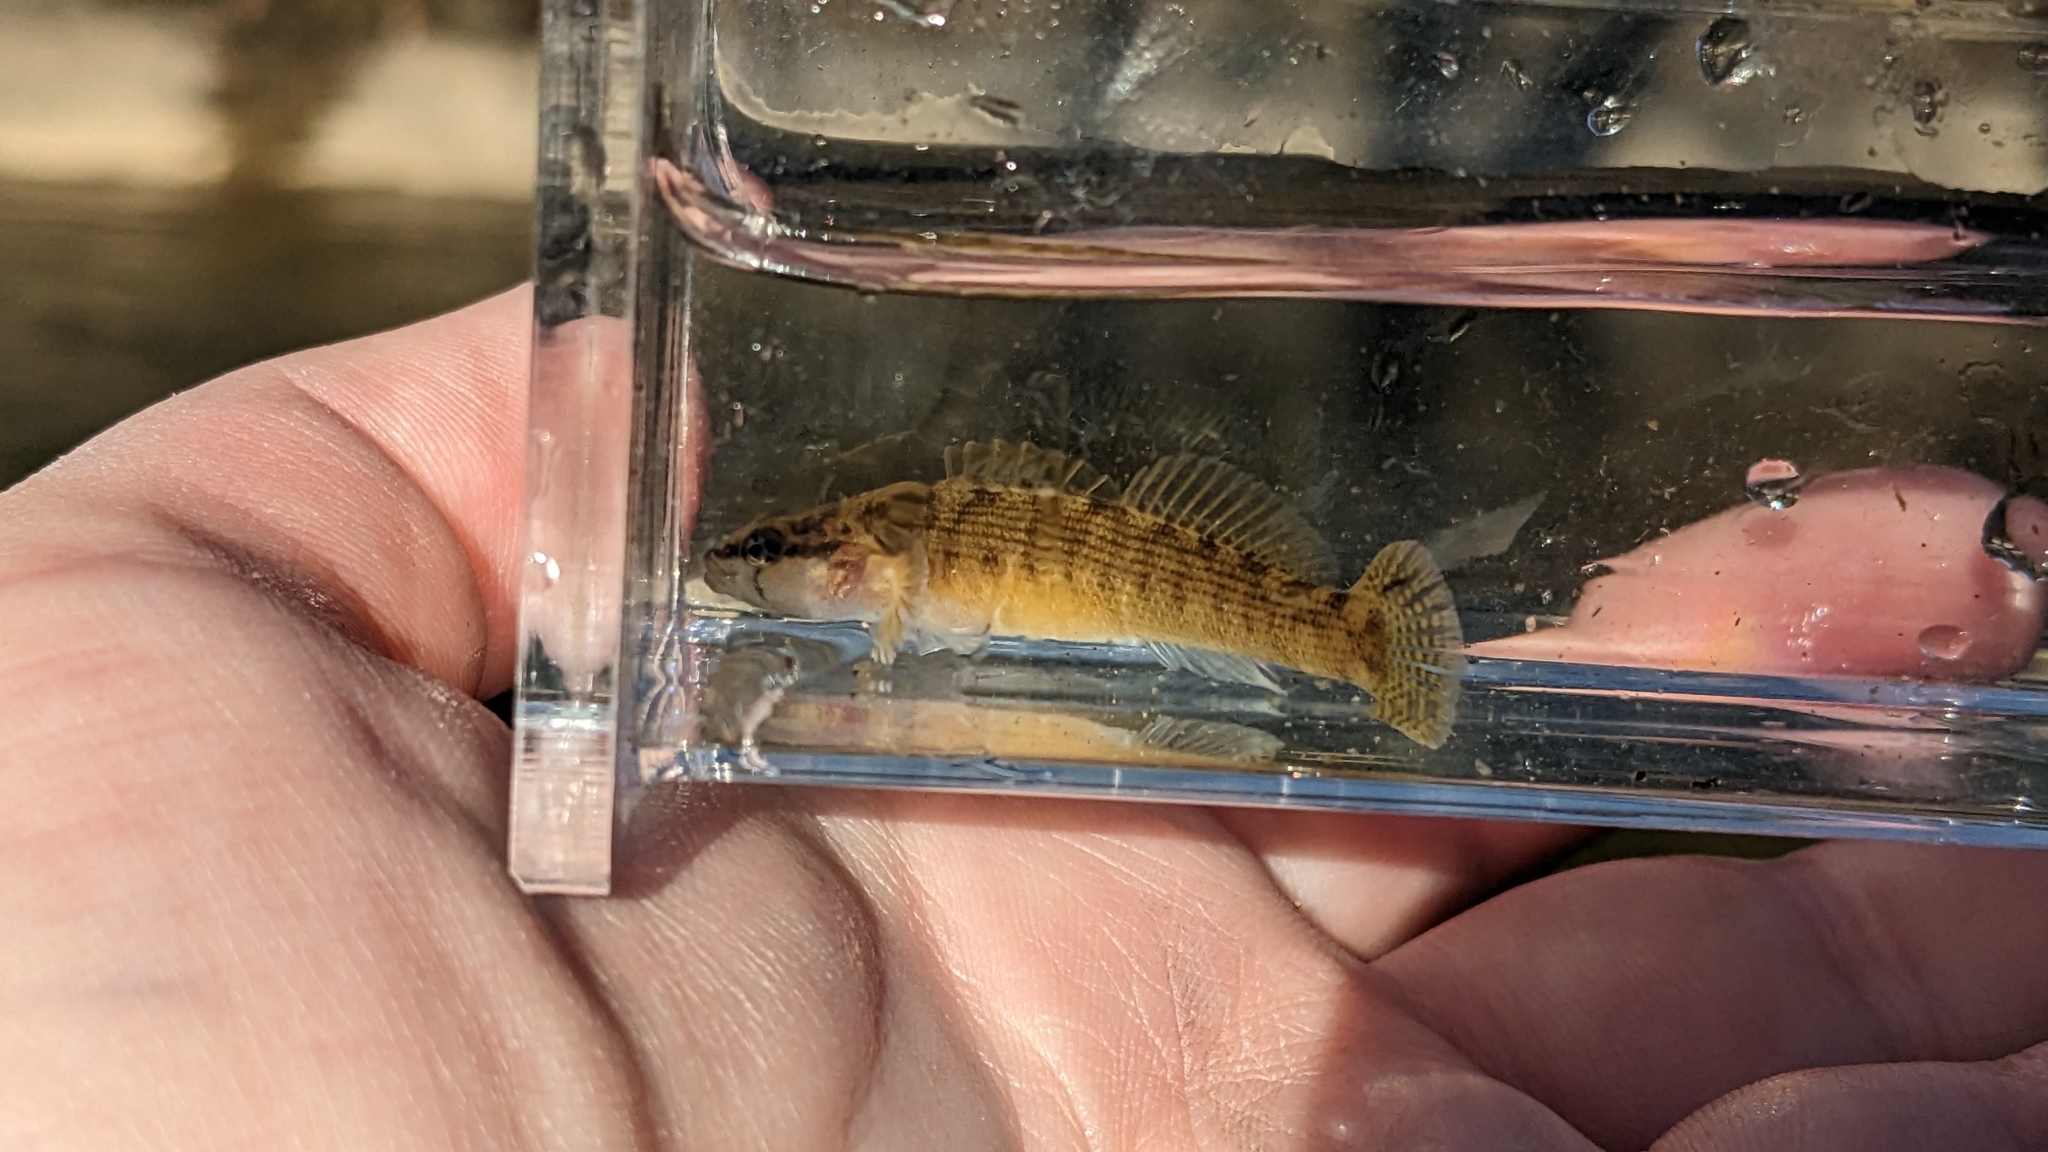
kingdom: Animalia
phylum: Chordata
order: Perciformes
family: Percidae
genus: Etheostoma
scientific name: Etheostoma flabellare
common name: Fantail darter
